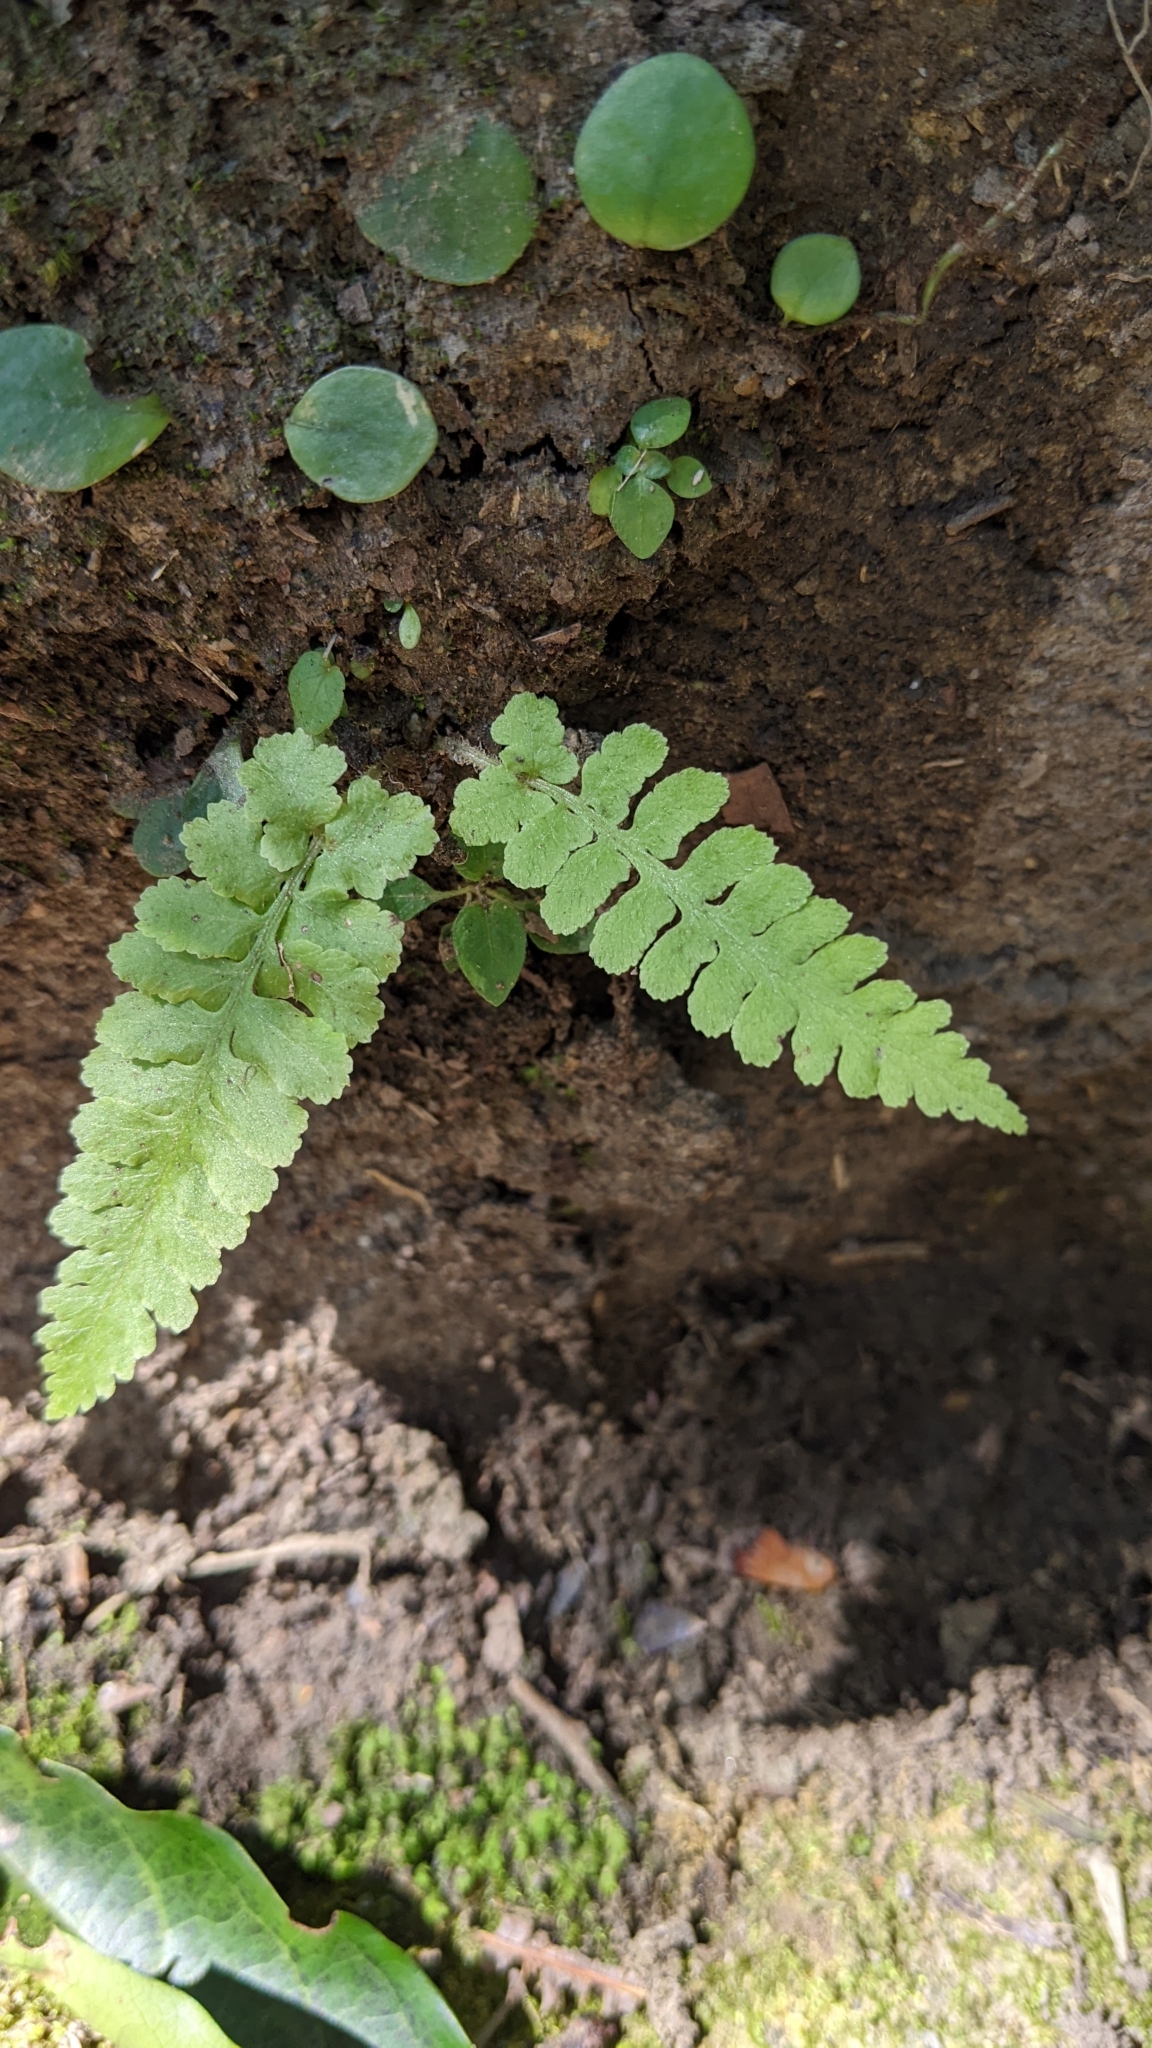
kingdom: Plantae
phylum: Tracheophyta
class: Polypodiopsida
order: Polypodiales
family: Athyriaceae
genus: Deparia
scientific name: Deparia petersenii
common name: Japanese false spleenwort
